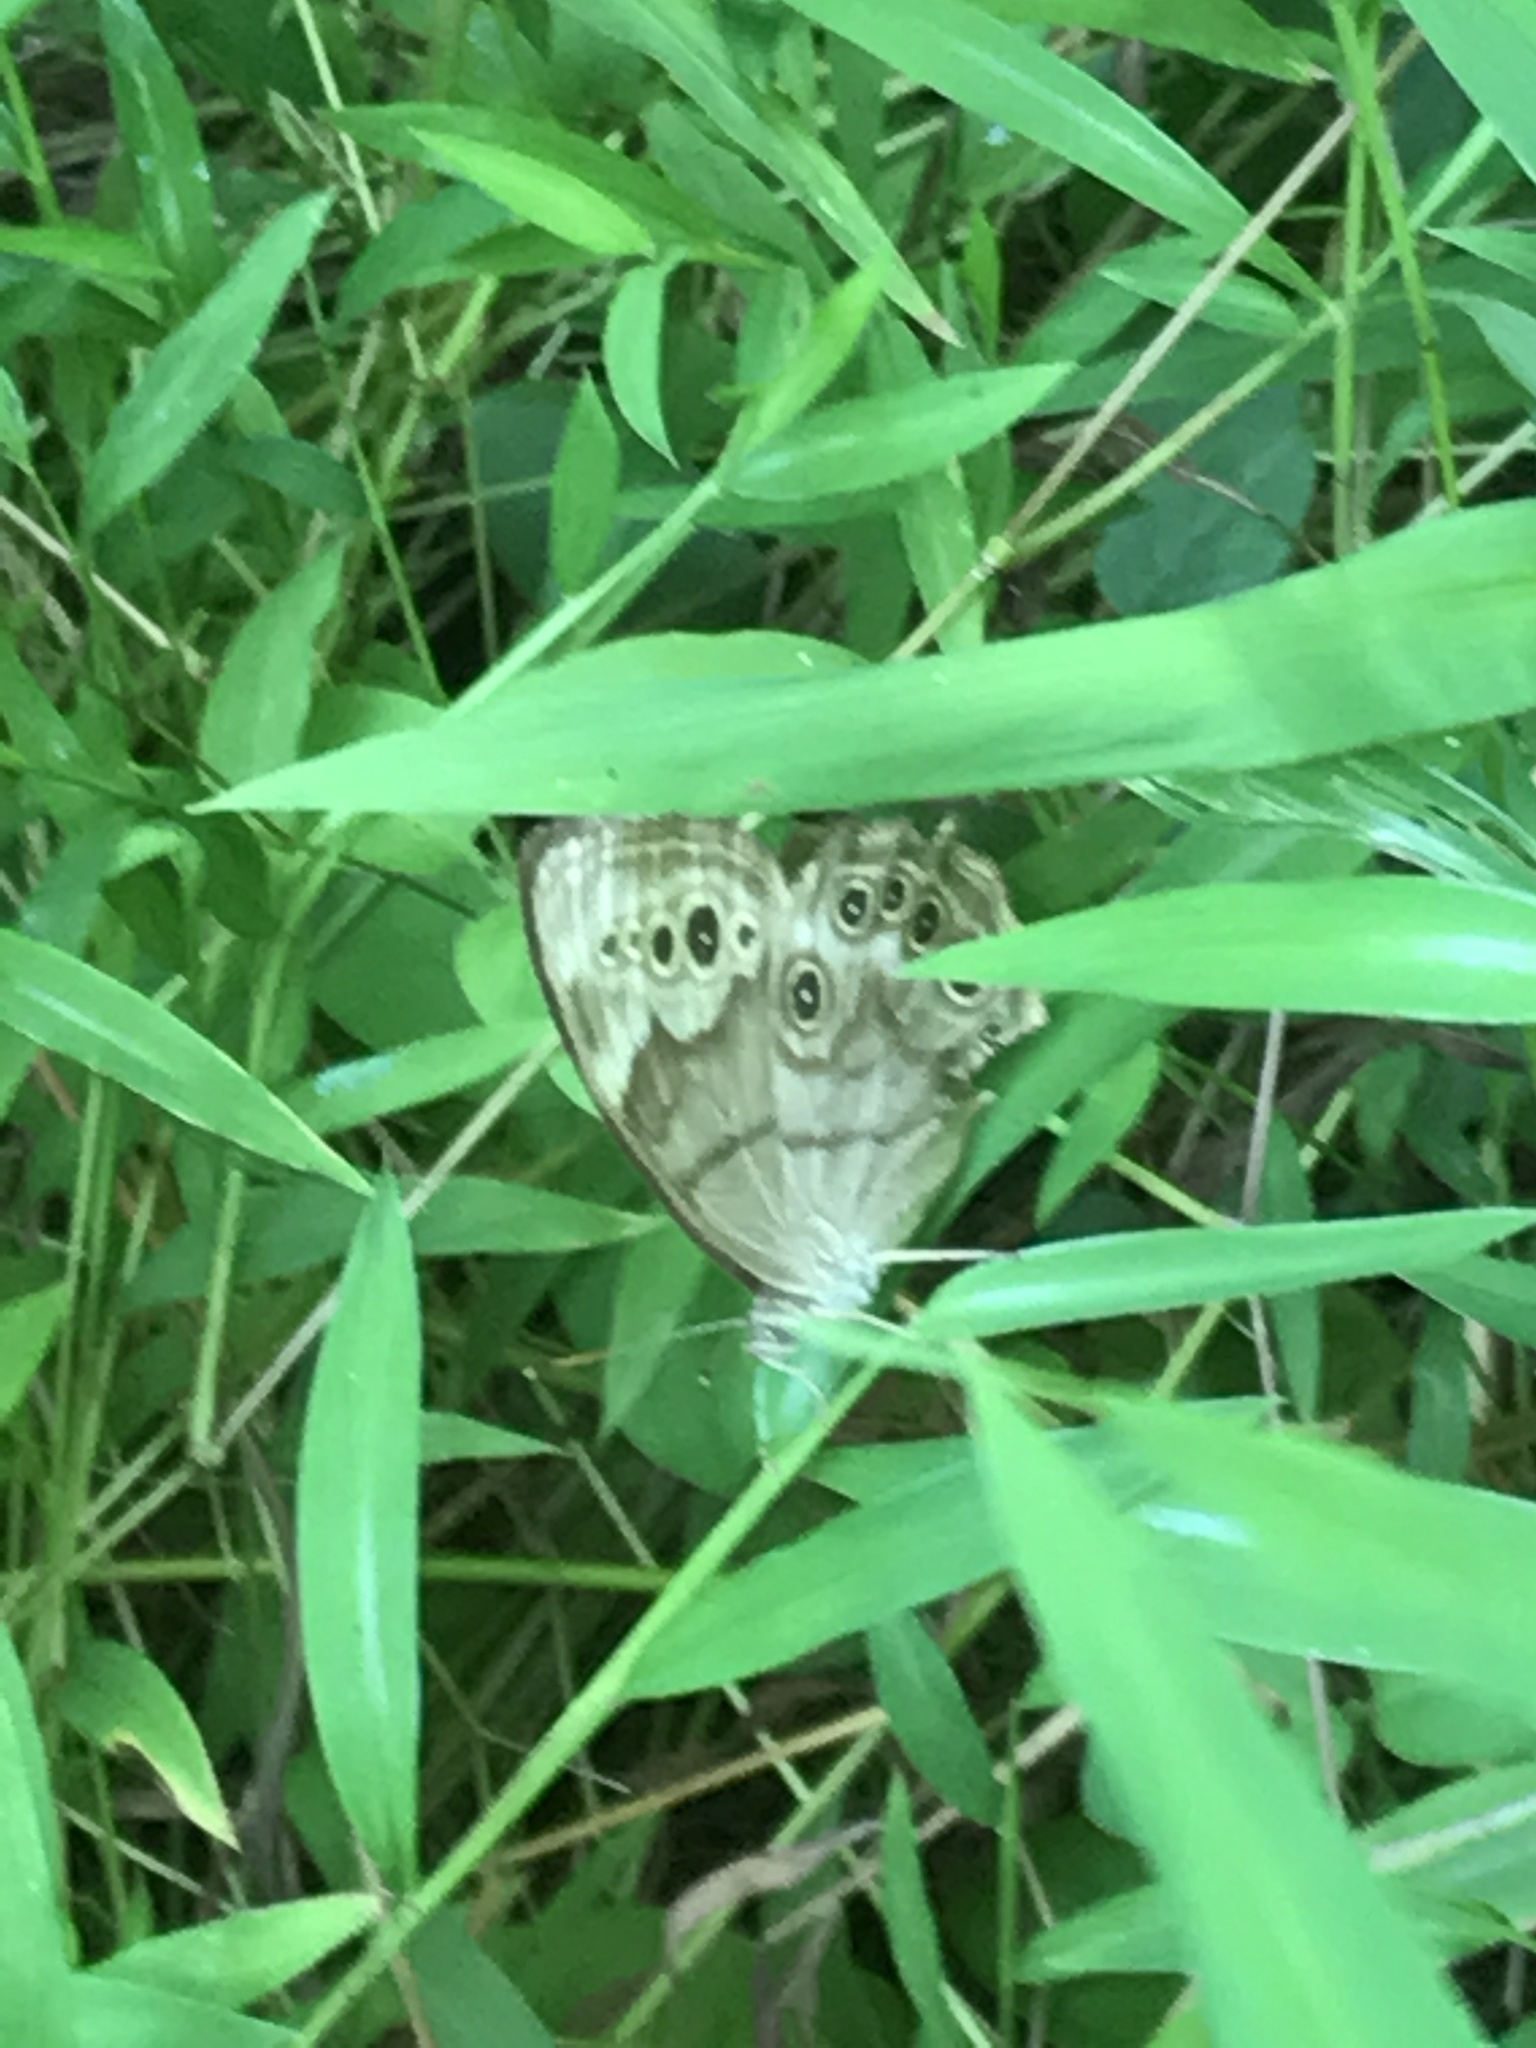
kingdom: Animalia
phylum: Arthropoda
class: Insecta
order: Lepidoptera
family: Nymphalidae
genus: Lethe
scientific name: Lethe anthedon
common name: Northern pearly-eye
